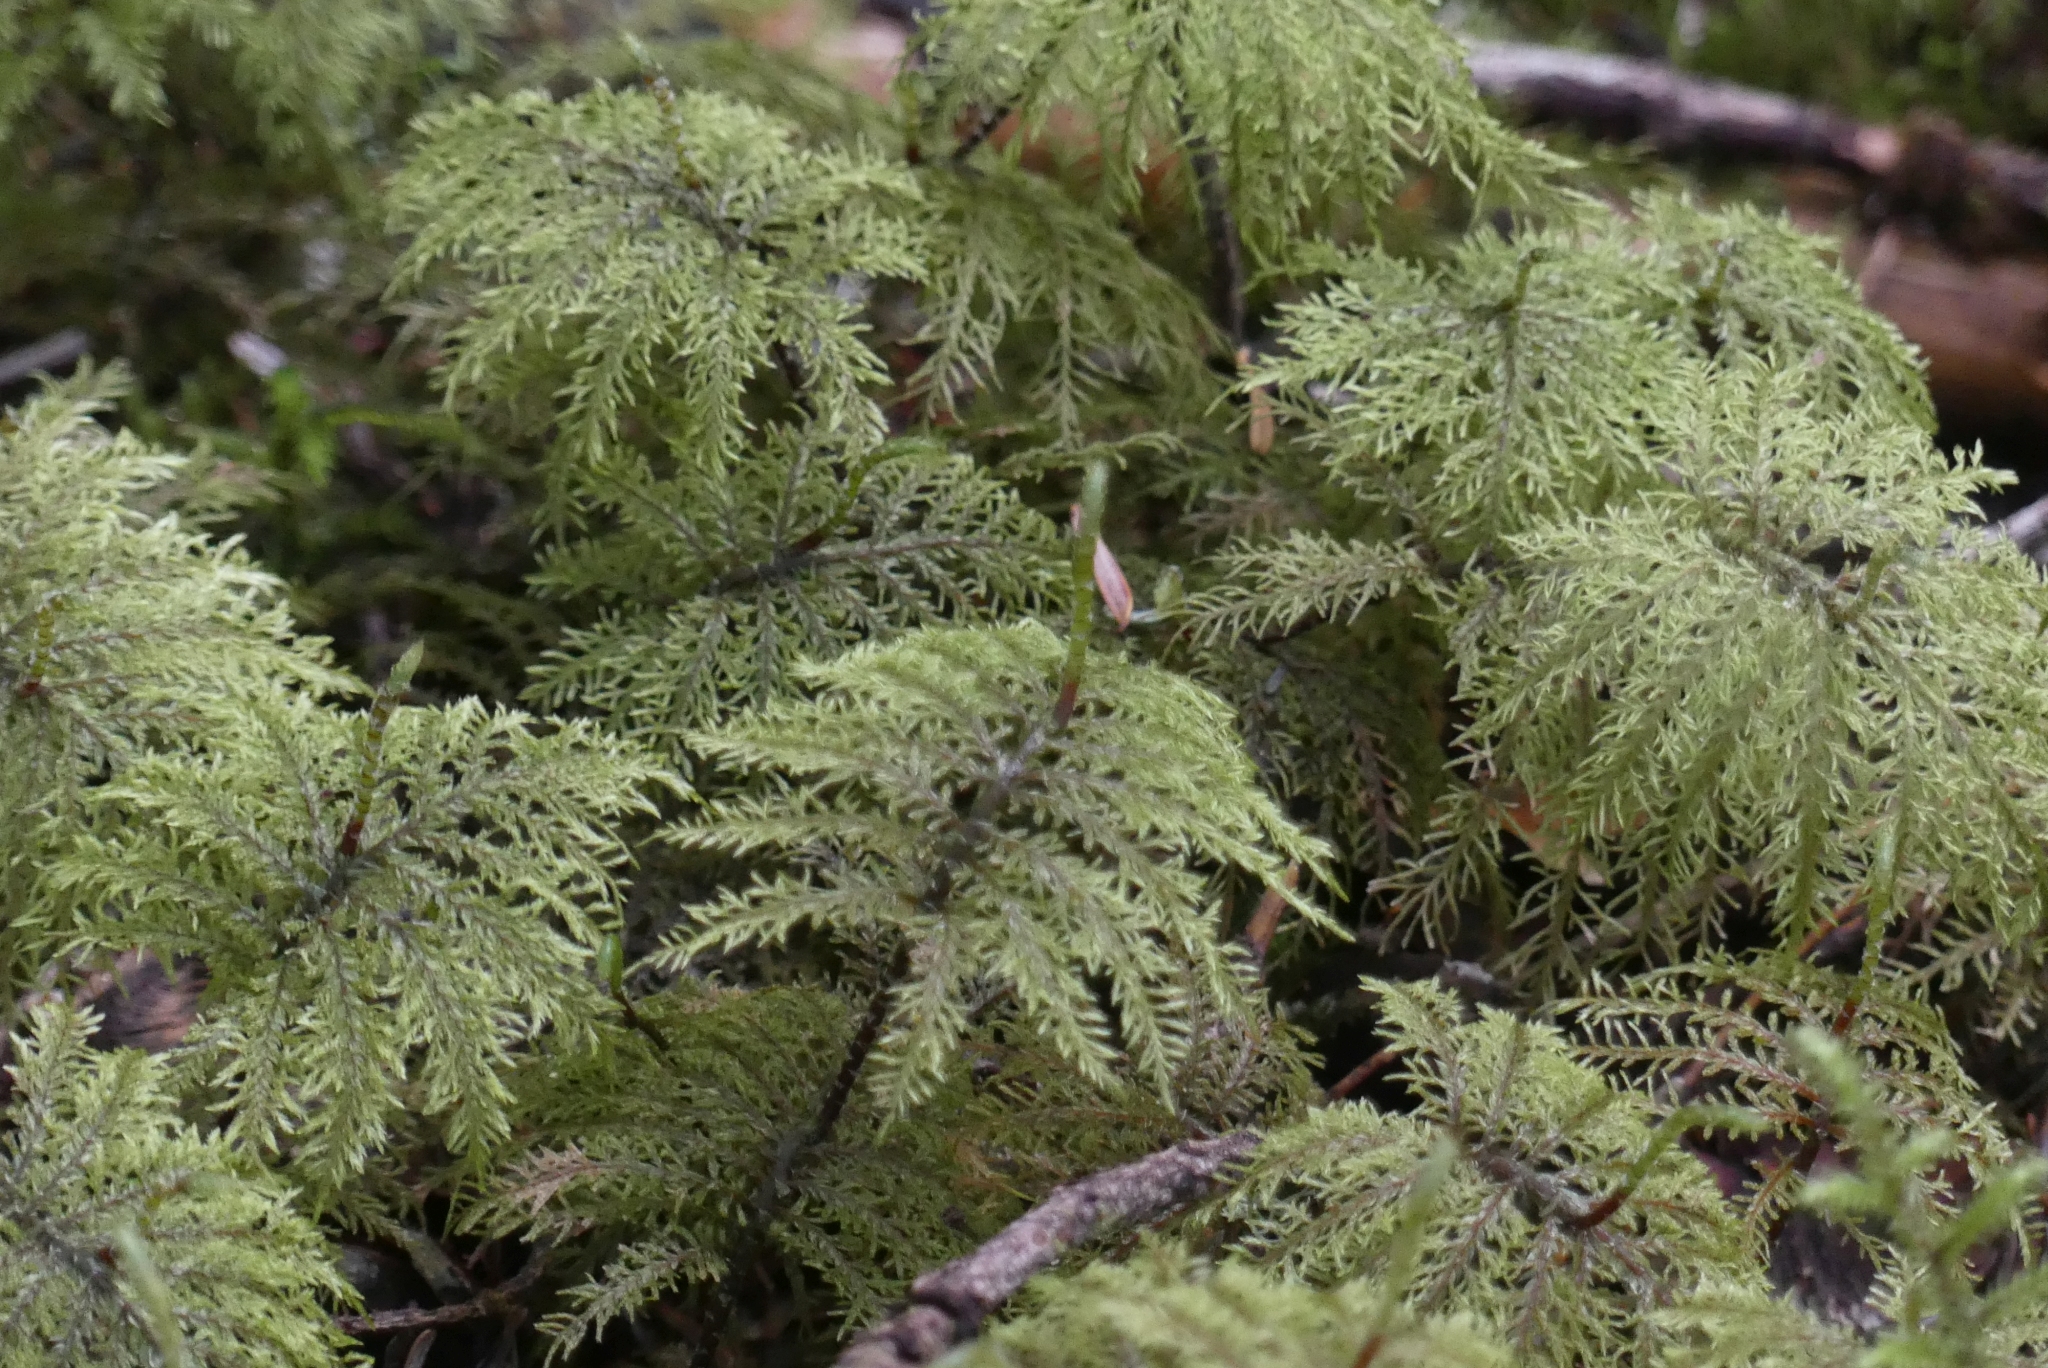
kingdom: Plantae
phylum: Bryophyta
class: Bryopsida
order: Hypnales
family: Hylocomiaceae
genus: Hylocomium
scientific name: Hylocomium splendens
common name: Stairstep moss
